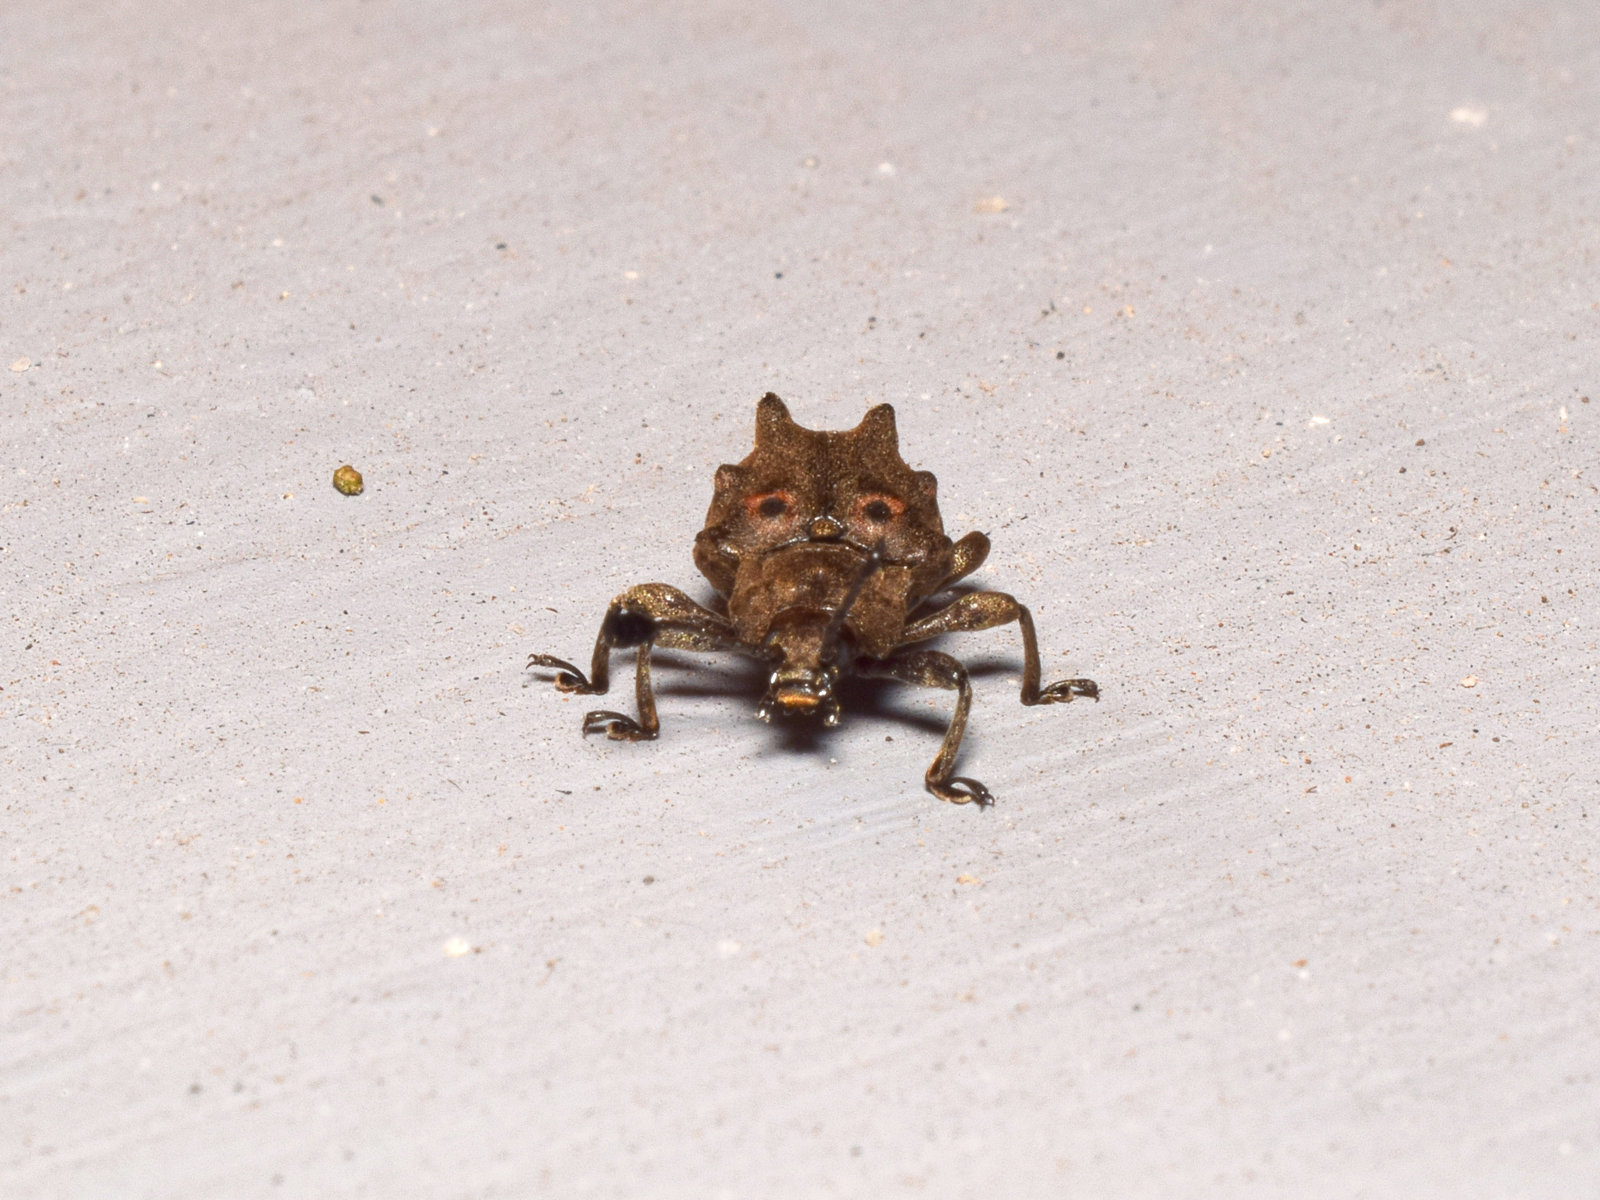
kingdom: Animalia
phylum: Arthropoda
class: Insecta
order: Coleoptera
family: Endomychidae
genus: Spathomeles
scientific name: Spathomeles
